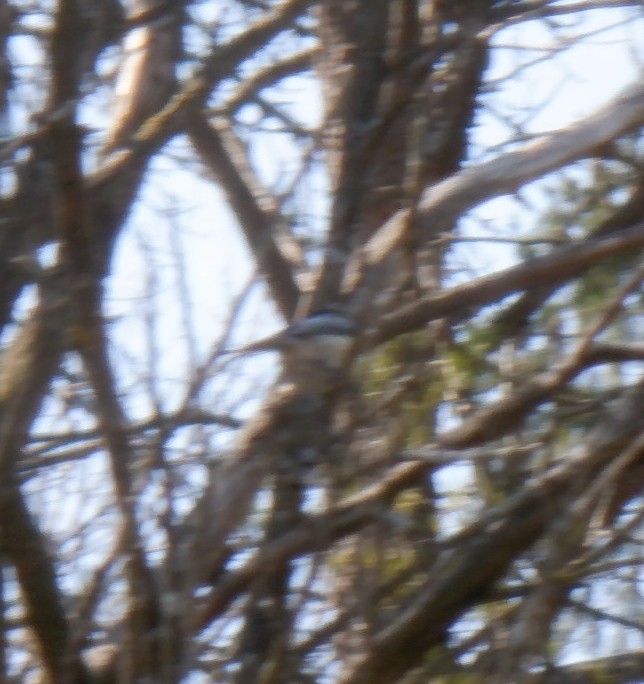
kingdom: Animalia
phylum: Chordata
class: Aves
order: Passeriformes
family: Paridae
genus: Poecile
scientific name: Poecile atricapillus
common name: Black-capped chickadee
